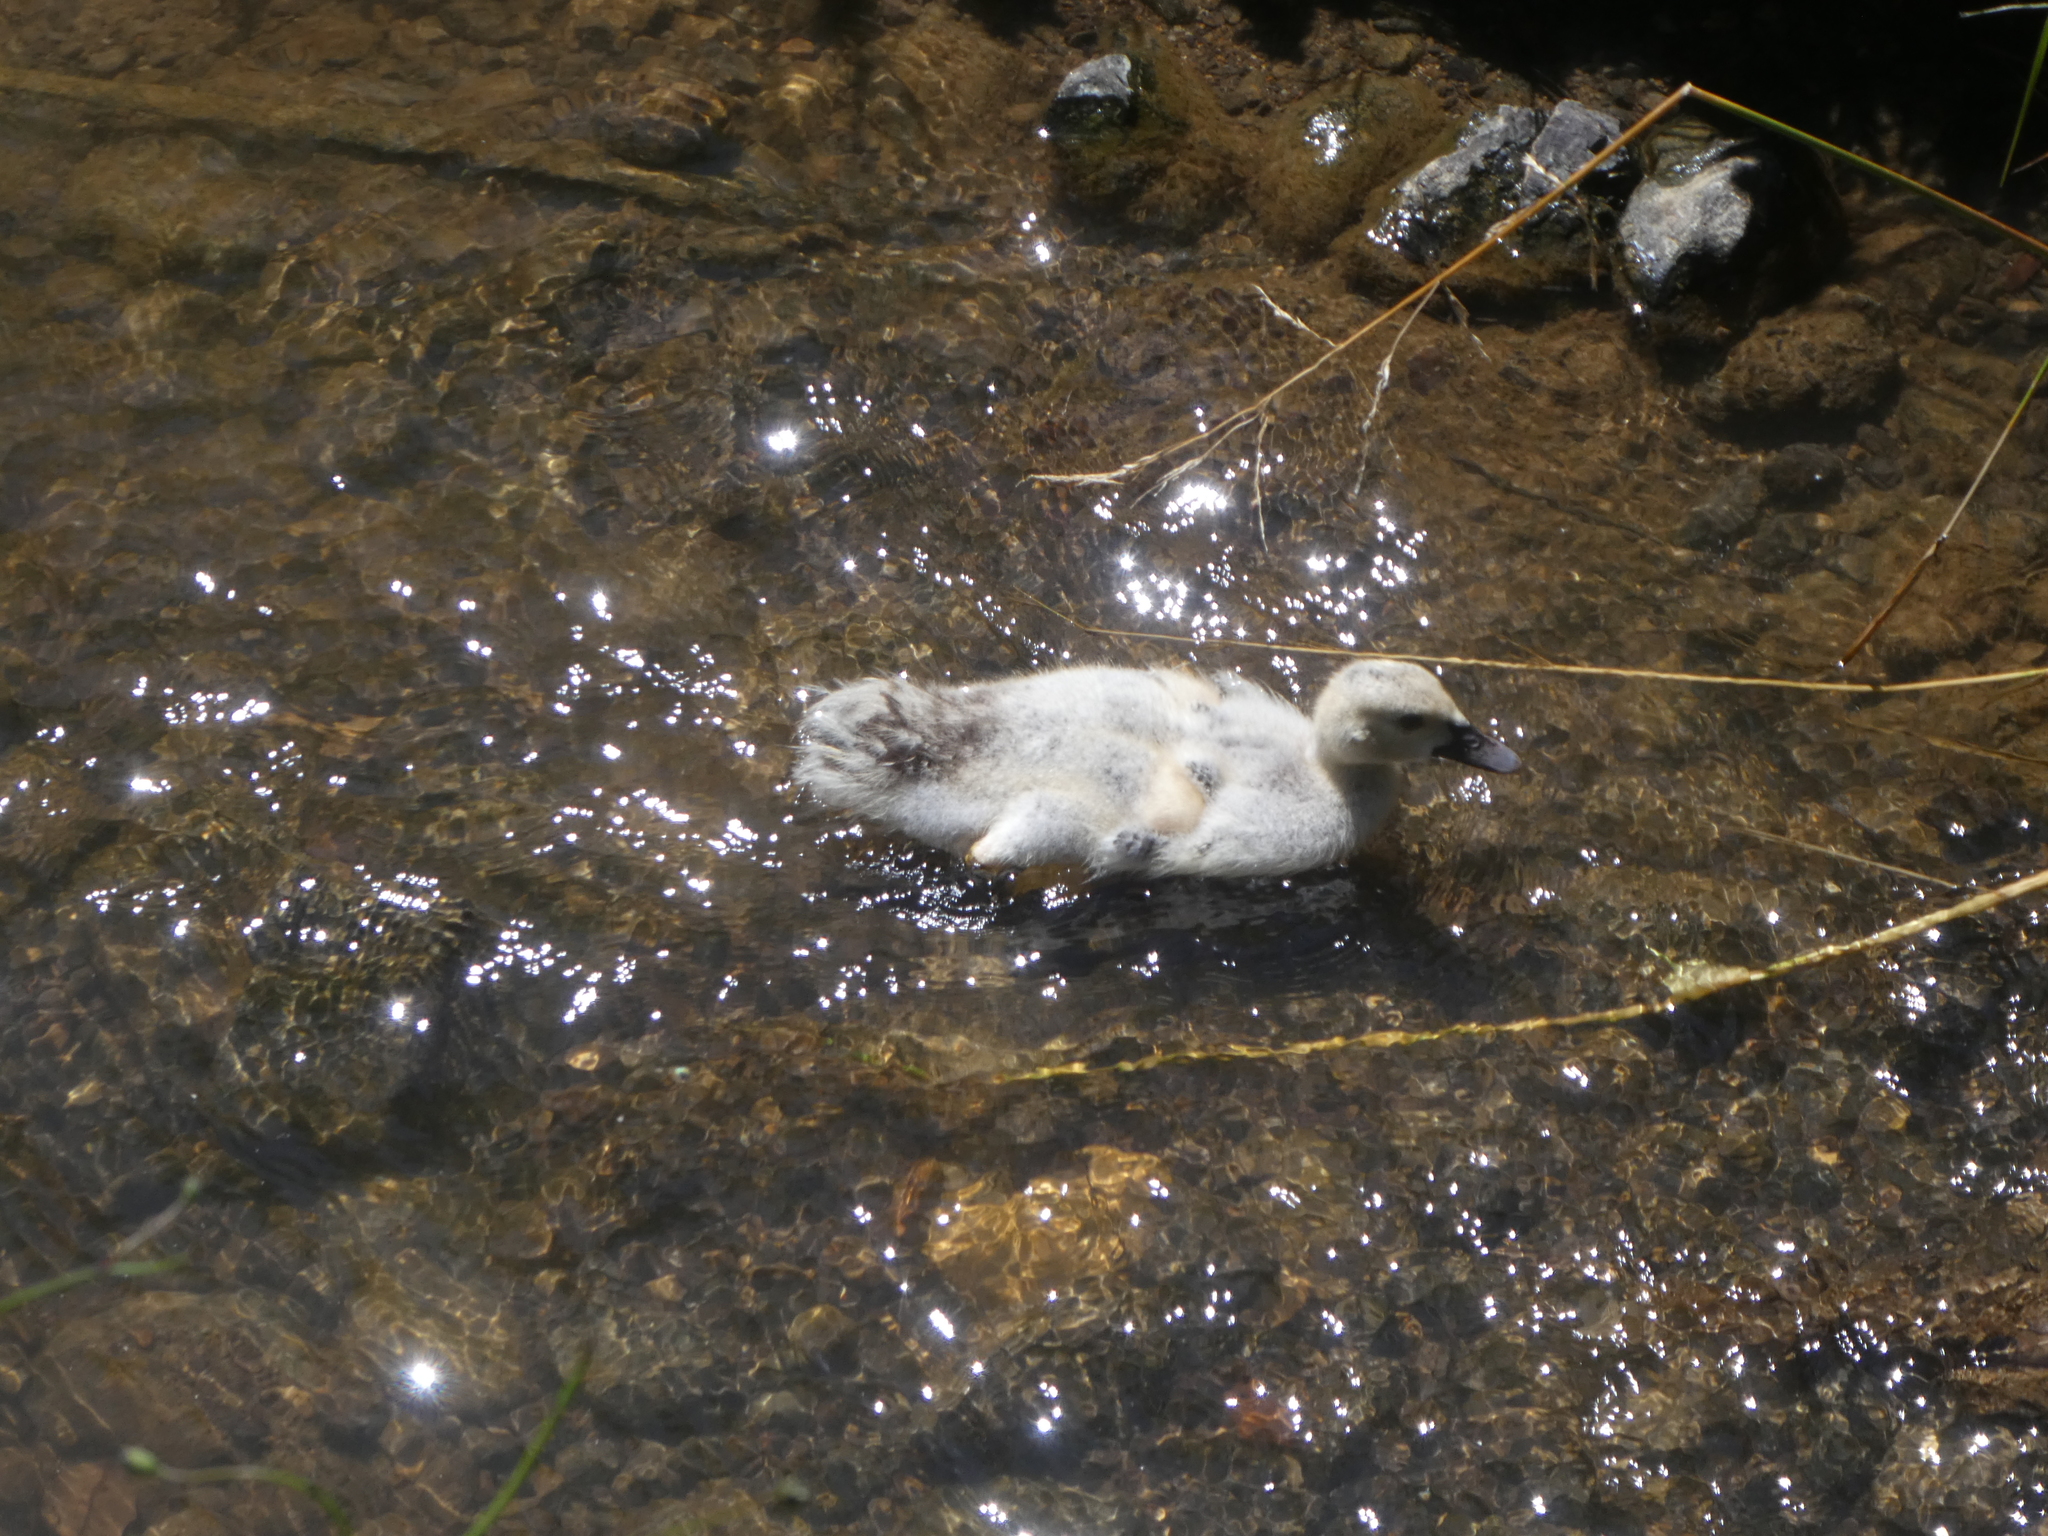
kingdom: Animalia
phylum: Chordata
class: Aves
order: Anseriformes
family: Anatidae
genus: Cairina
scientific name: Cairina moschata
